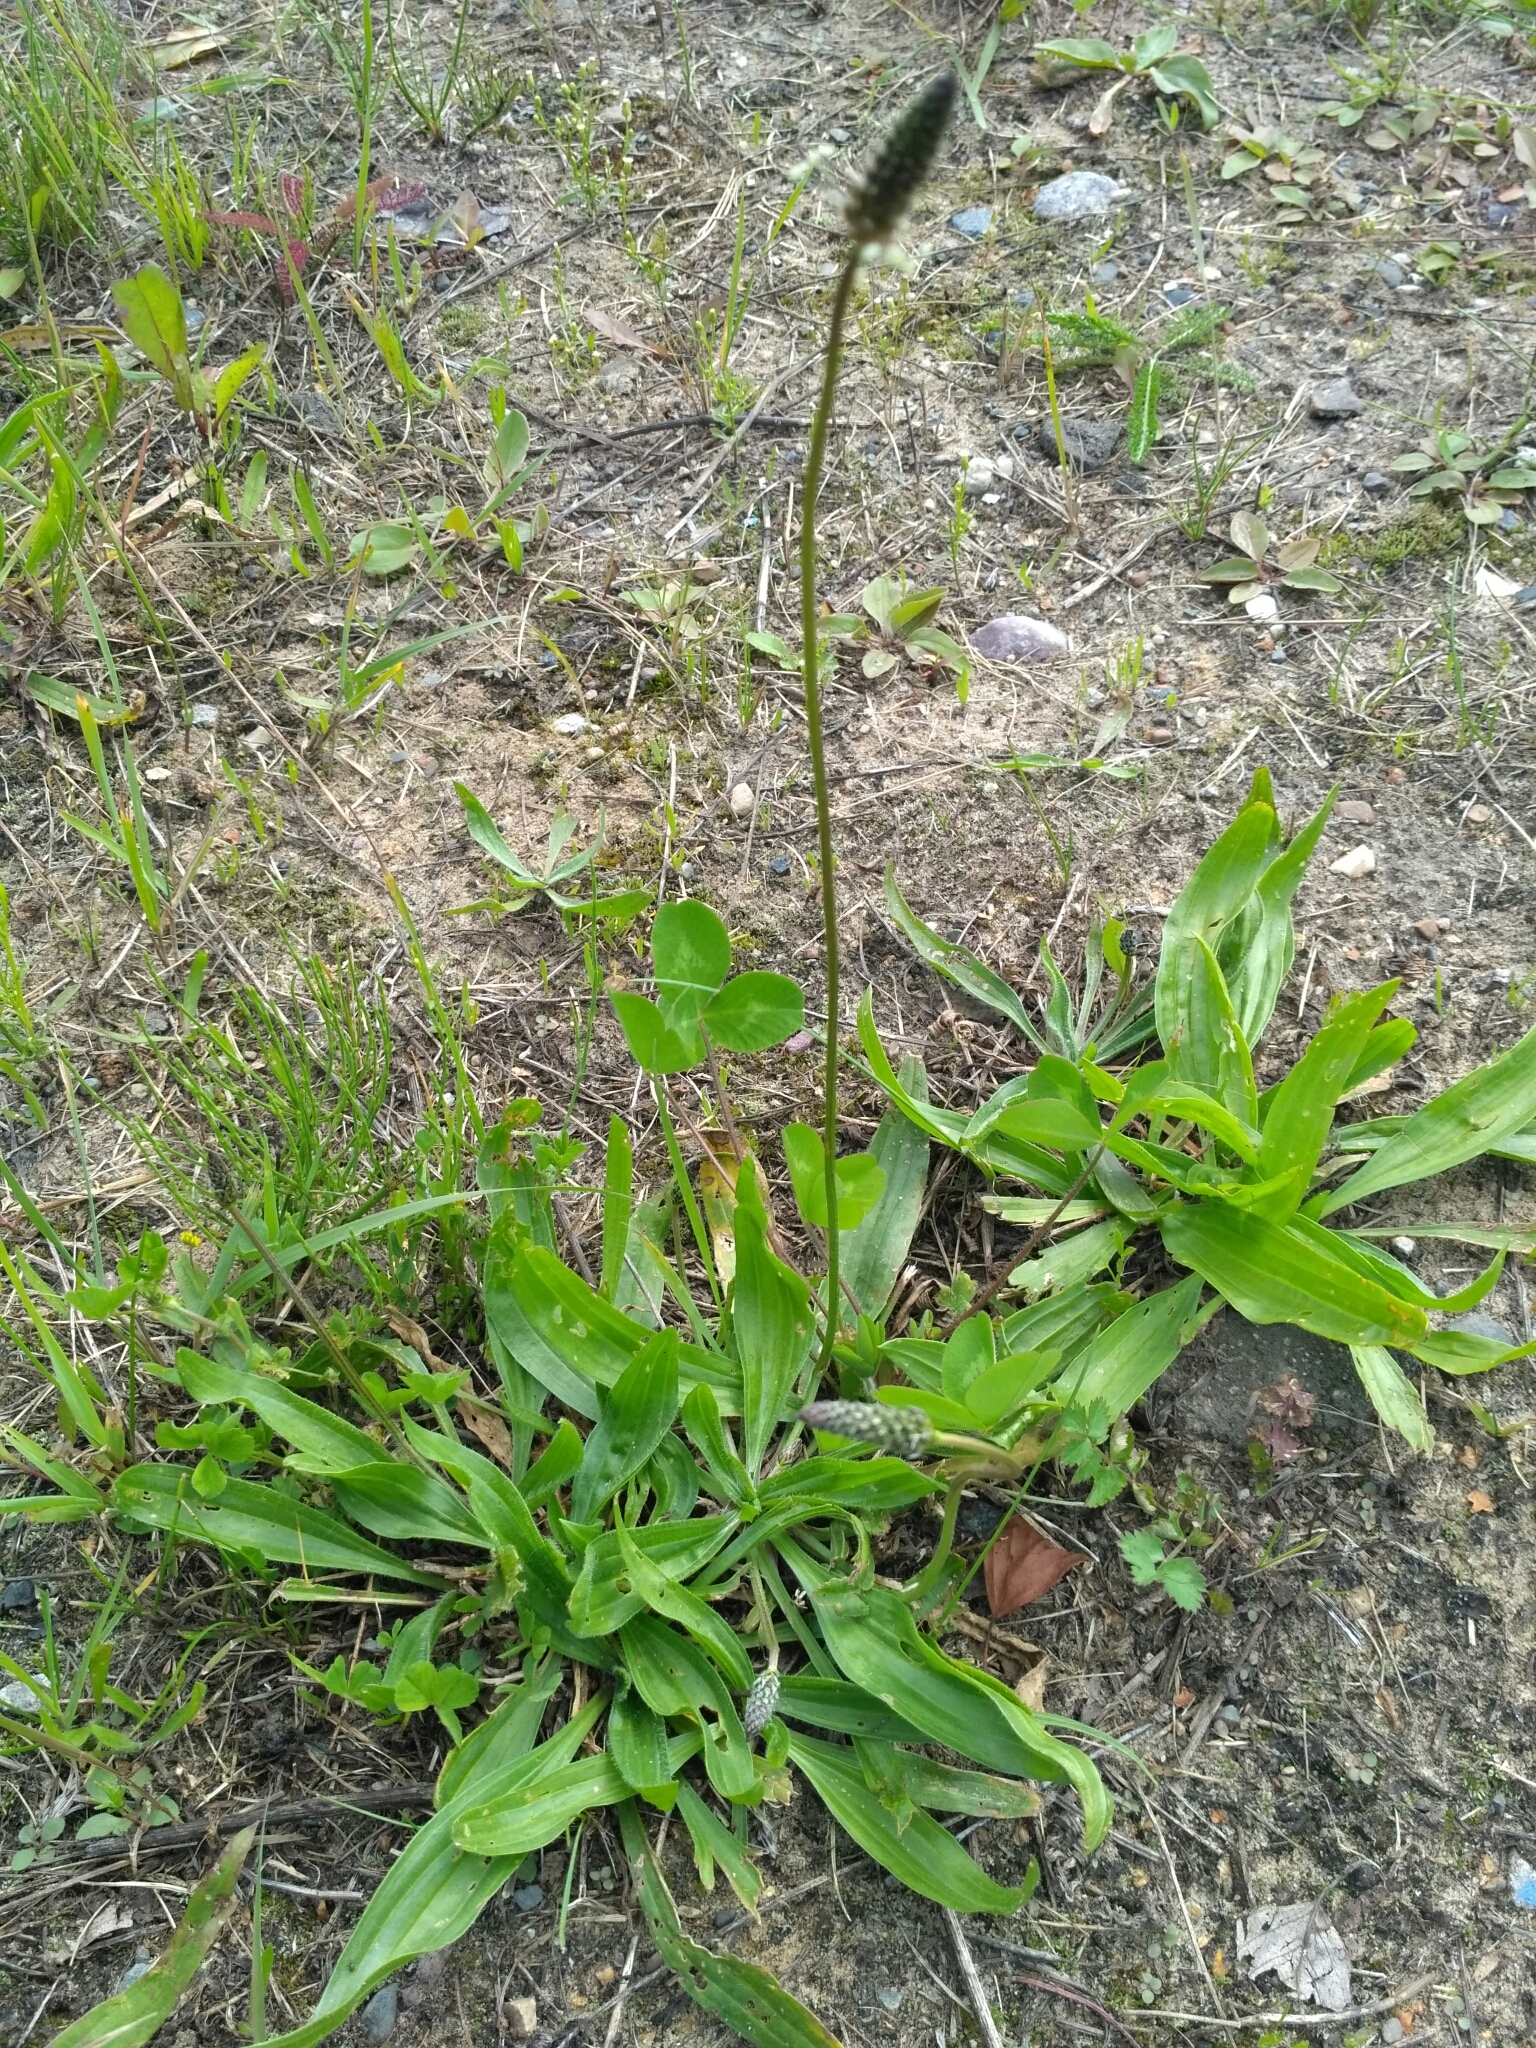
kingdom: Plantae
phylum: Tracheophyta
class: Magnoliopsida
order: Lamiales
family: Plantaginaceae
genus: Plantago
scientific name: Plantago lanceolata
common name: Ribwort plantain
